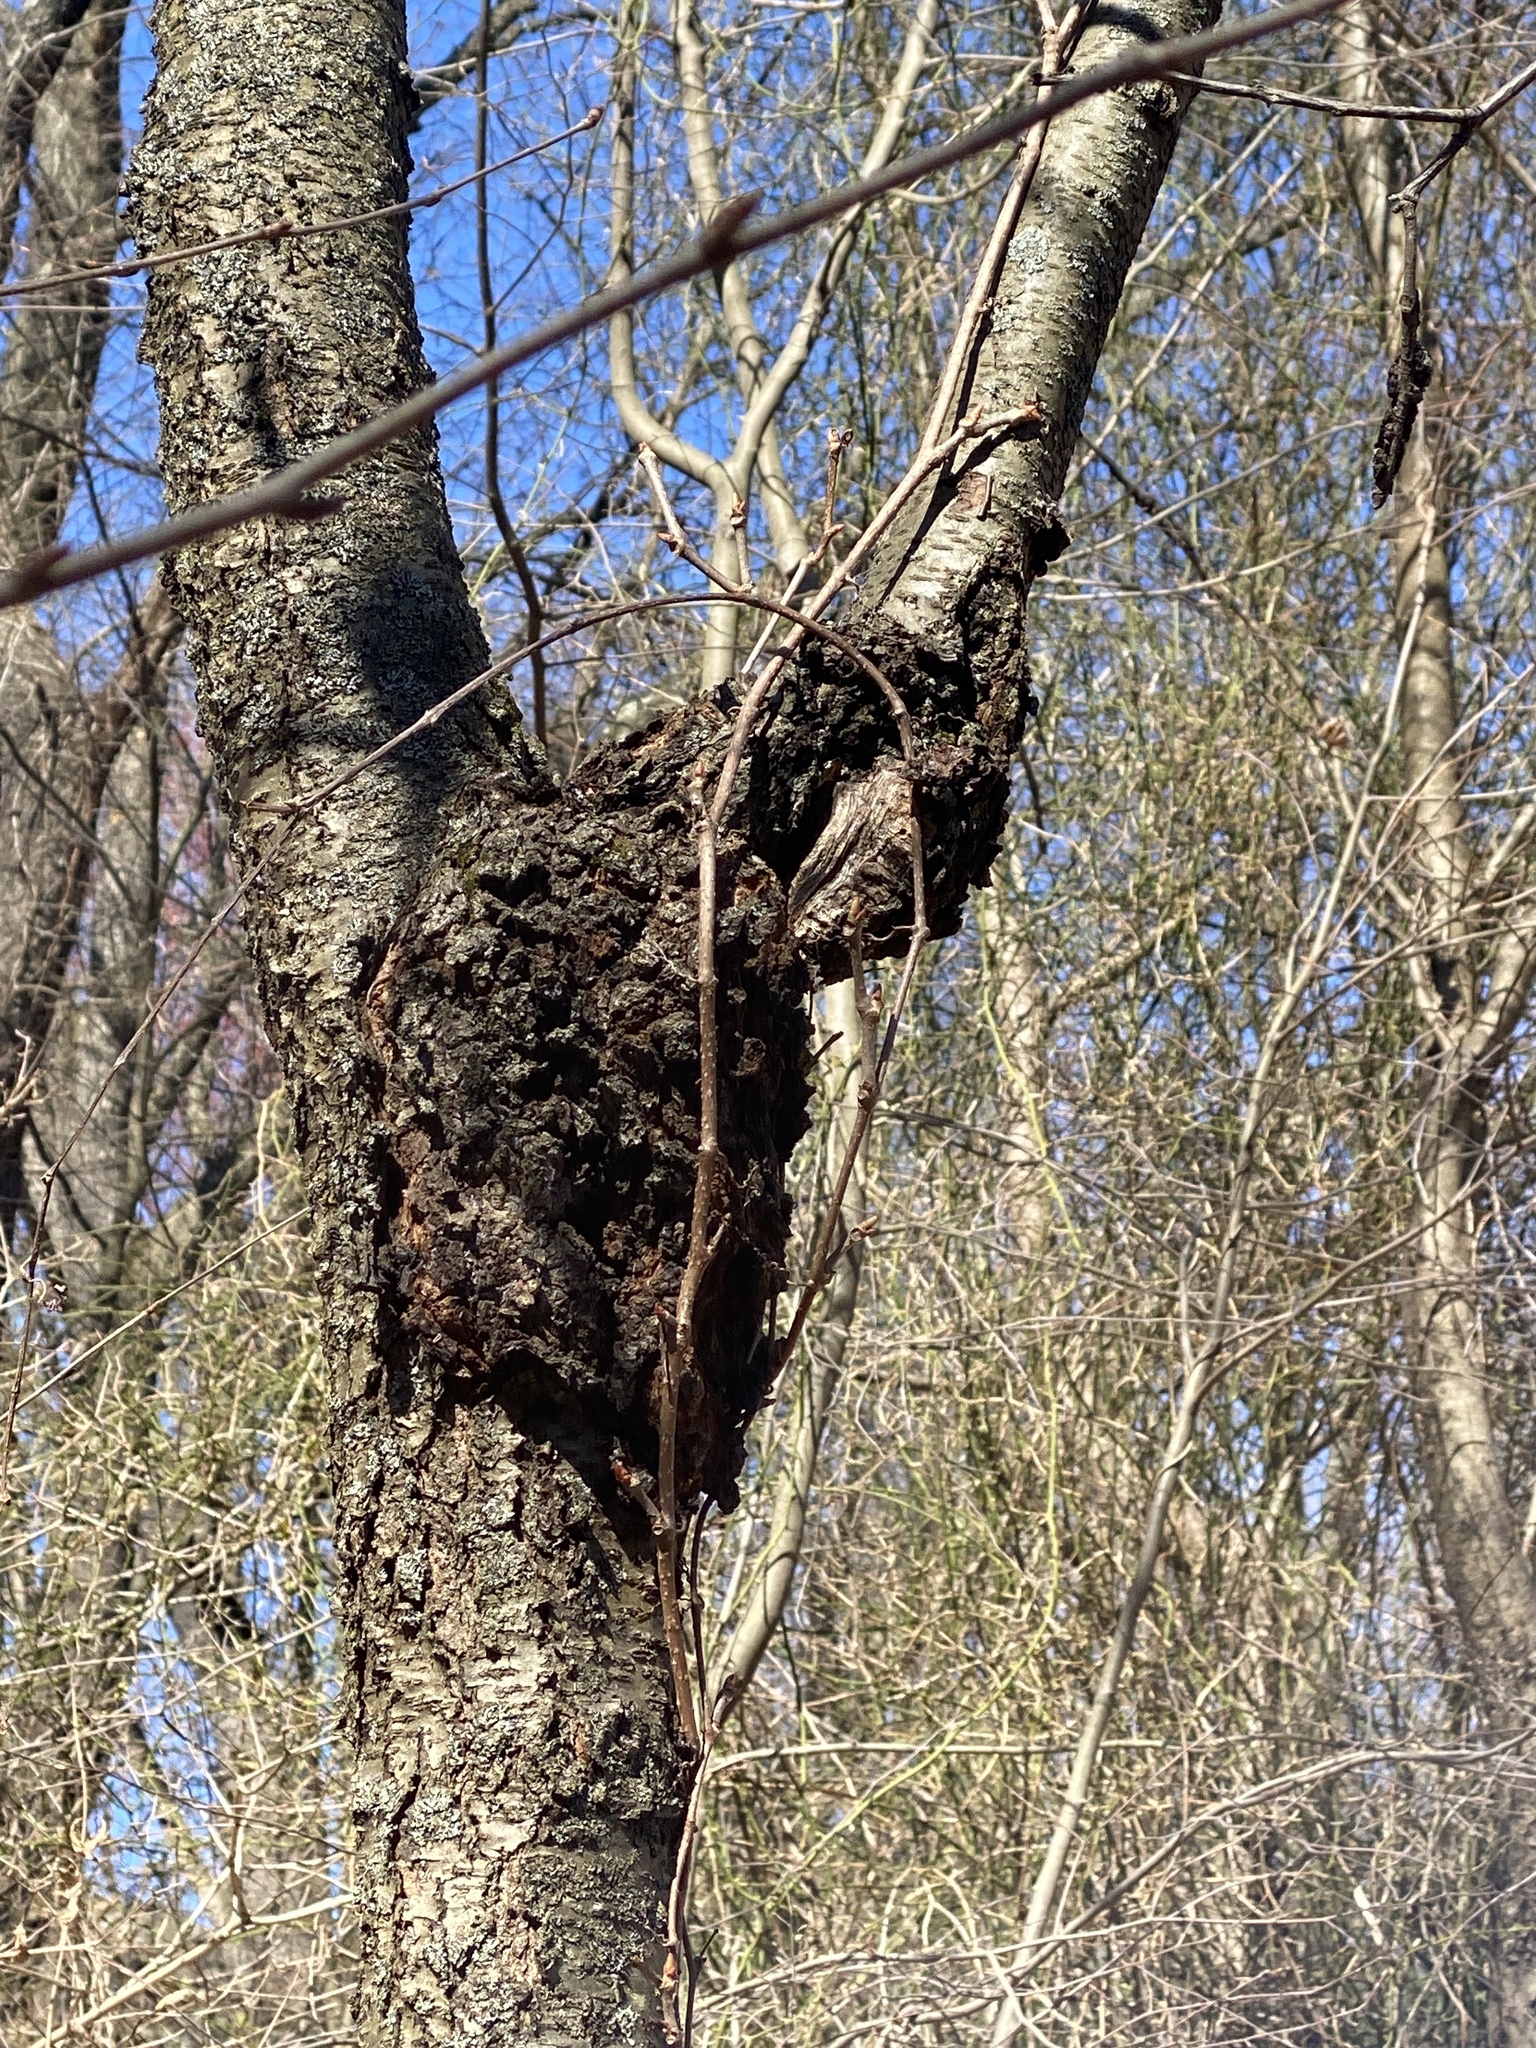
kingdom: Fungi
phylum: Ascomycota
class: Dothideomycetes
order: Venturiales
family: Venturiaceae
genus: Apiosporina
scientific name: Apiosporina morbosa
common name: Black knot
